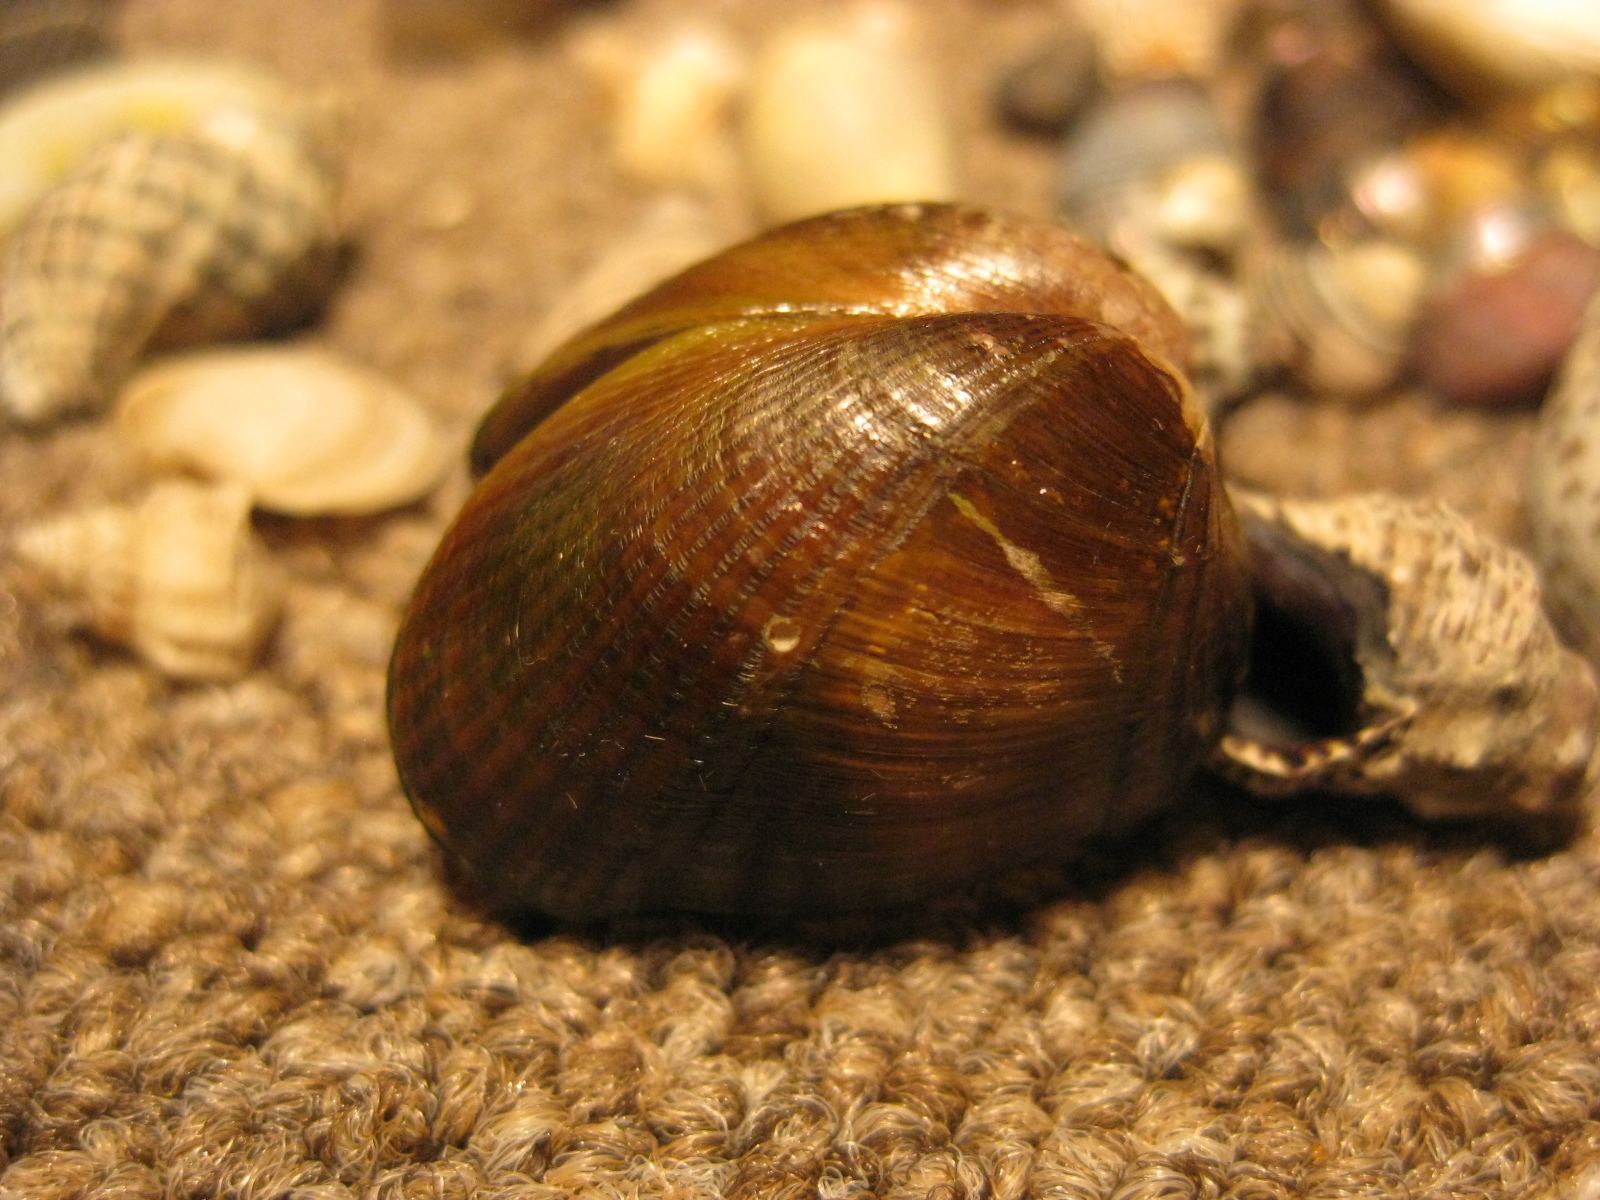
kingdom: Animalia
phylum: Mollusca
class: Bivalvia
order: Mytilida
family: Mytilidae
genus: Musculus
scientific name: Musculus impactus
